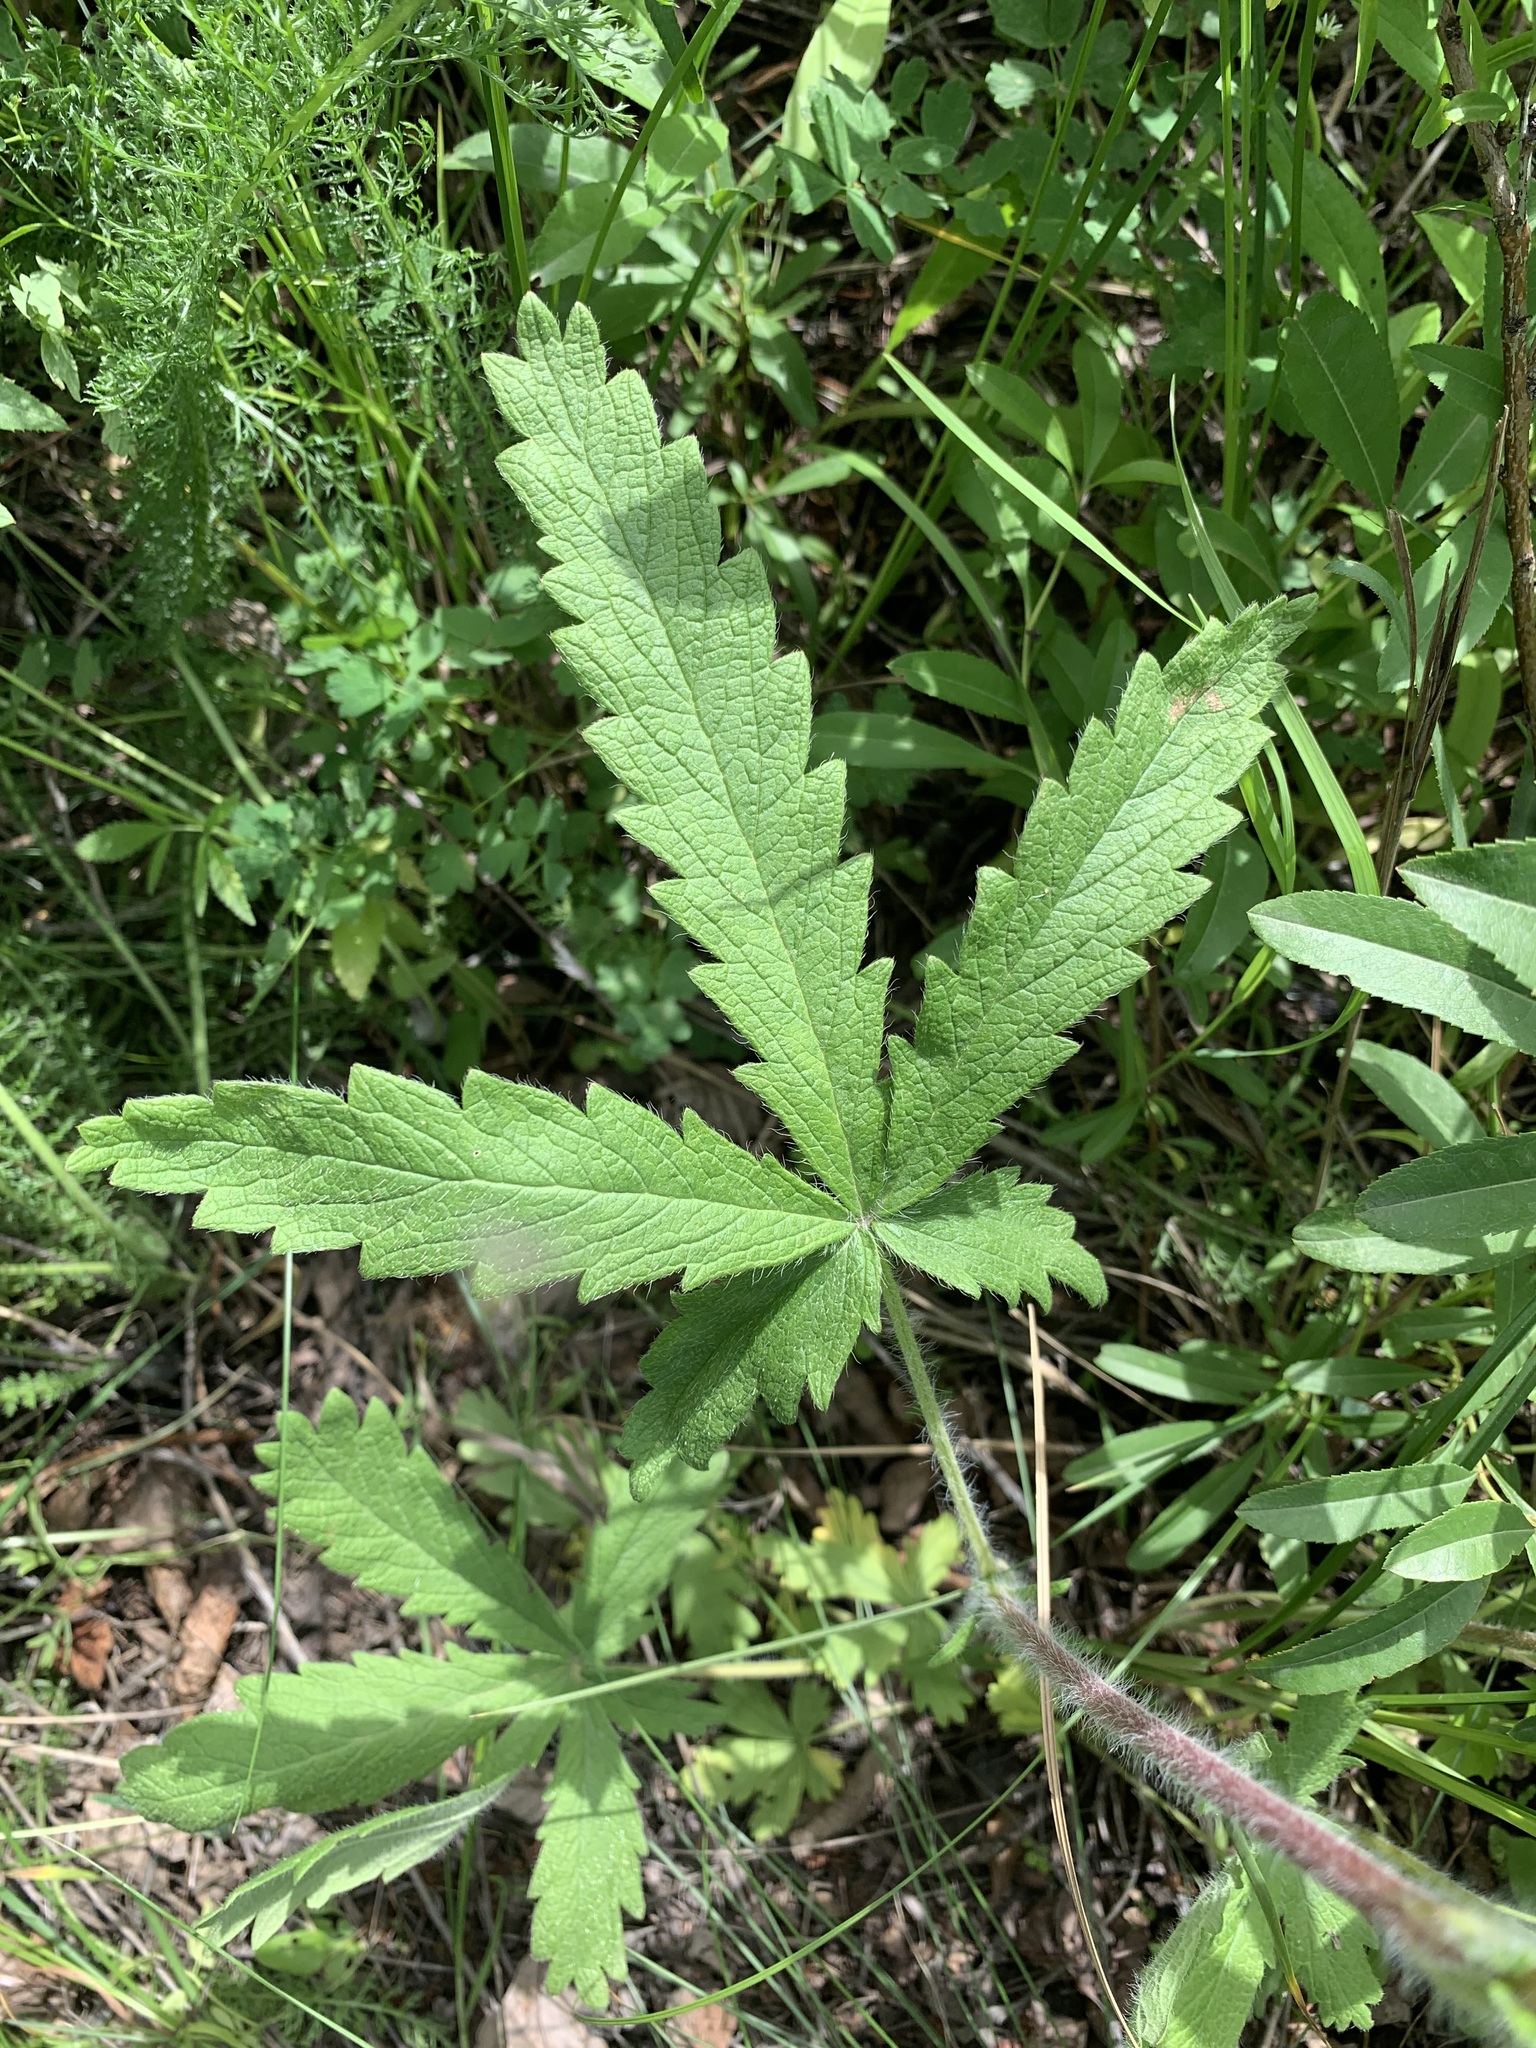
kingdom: Plantae
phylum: Tracheophyta
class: Magnoliopsida
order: Rosales
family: Rosaceae
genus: Potentilla
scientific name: Potentilla
